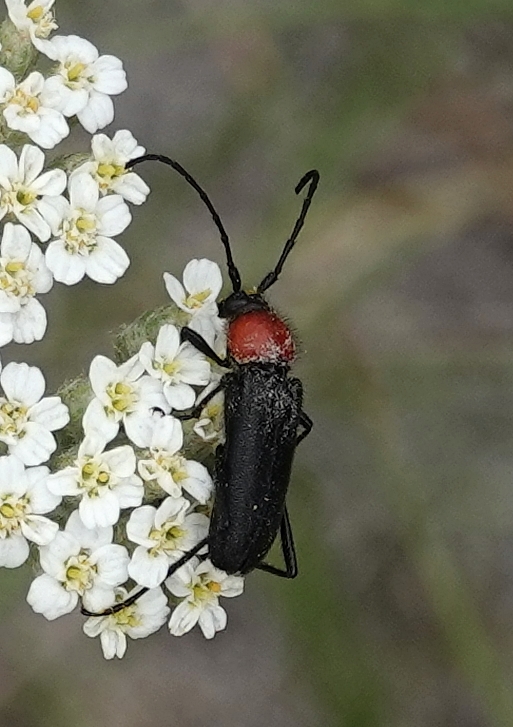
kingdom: Animalia
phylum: Arthropoda
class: Insecta
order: Coleoptera
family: Cerambycidae
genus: Batyle
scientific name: Batyle ignicollis
